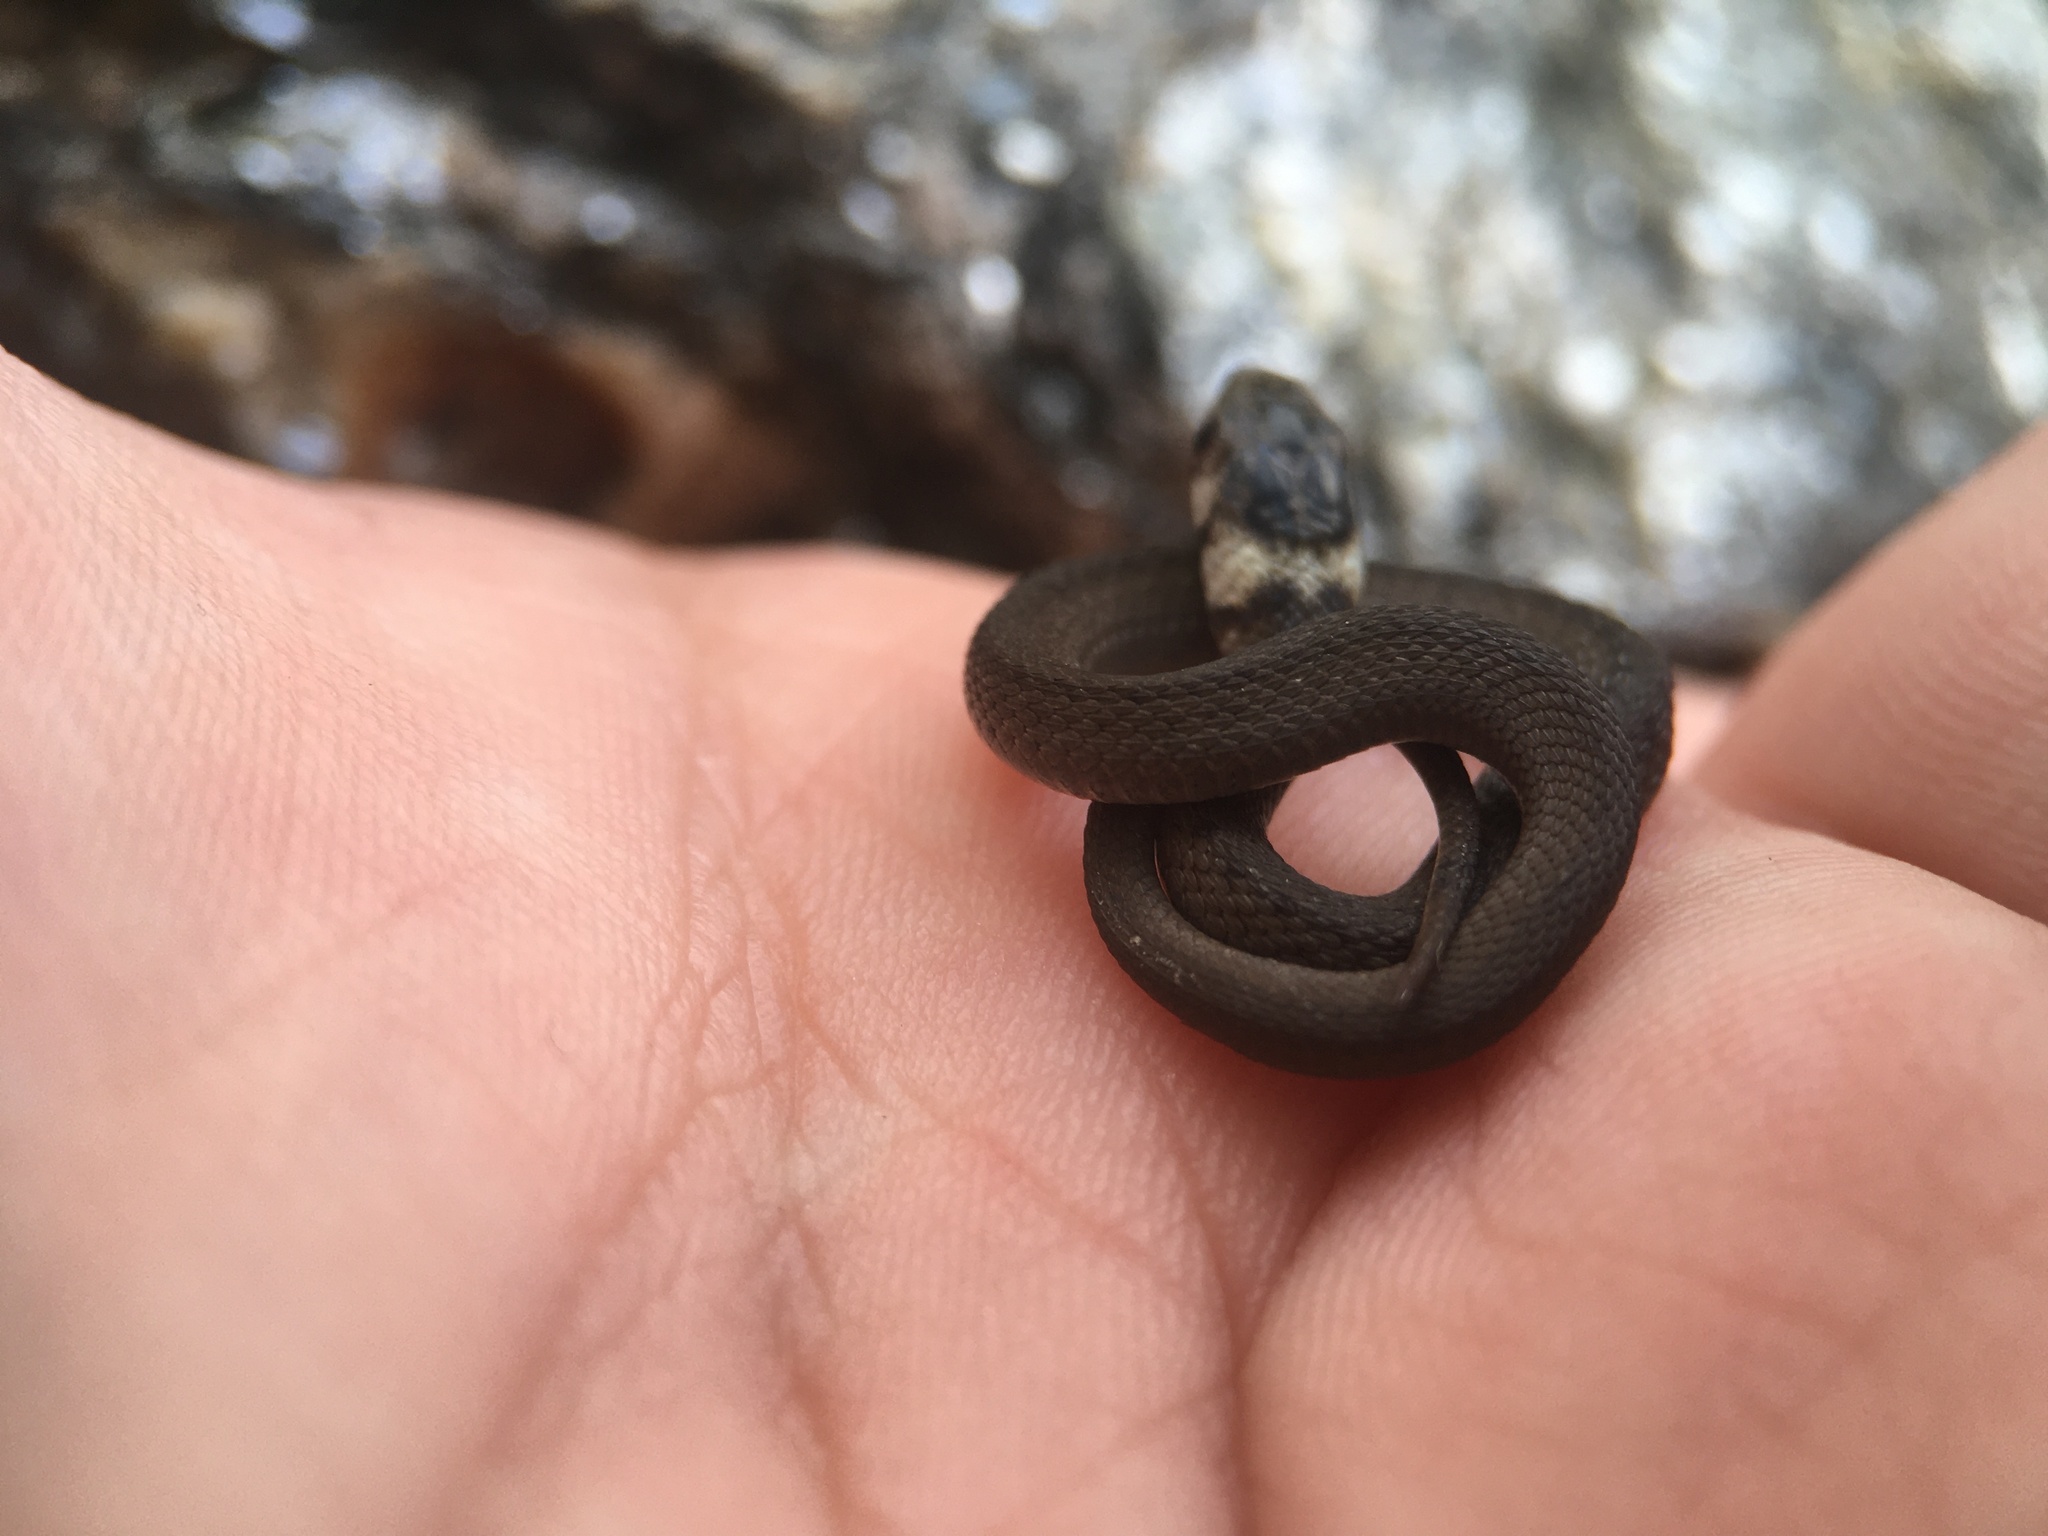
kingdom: Animalia
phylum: Chordata
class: Squamata
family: Colubridae
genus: Storeria
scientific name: Storeria dekayi
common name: (dekay’s) brown snake
